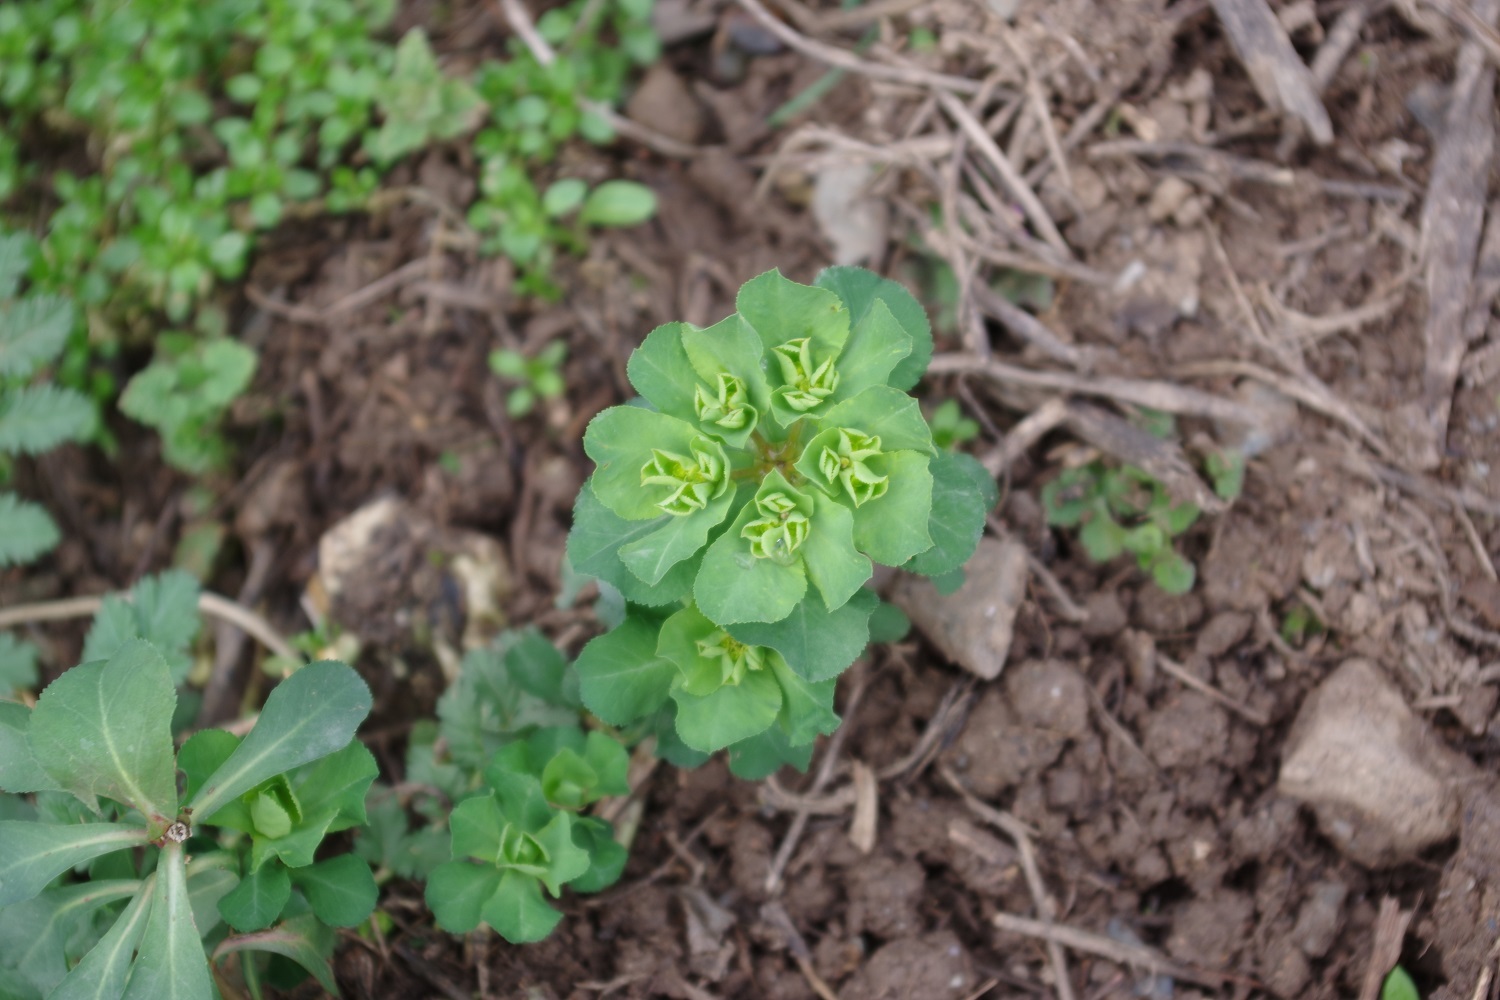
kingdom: Plantae
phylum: Tracheophyta
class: Magnoliopsida
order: Malpighiales
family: Euphorbiaceae
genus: Euphorbia
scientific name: Euphorbia helioscopia
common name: Sun spurge
